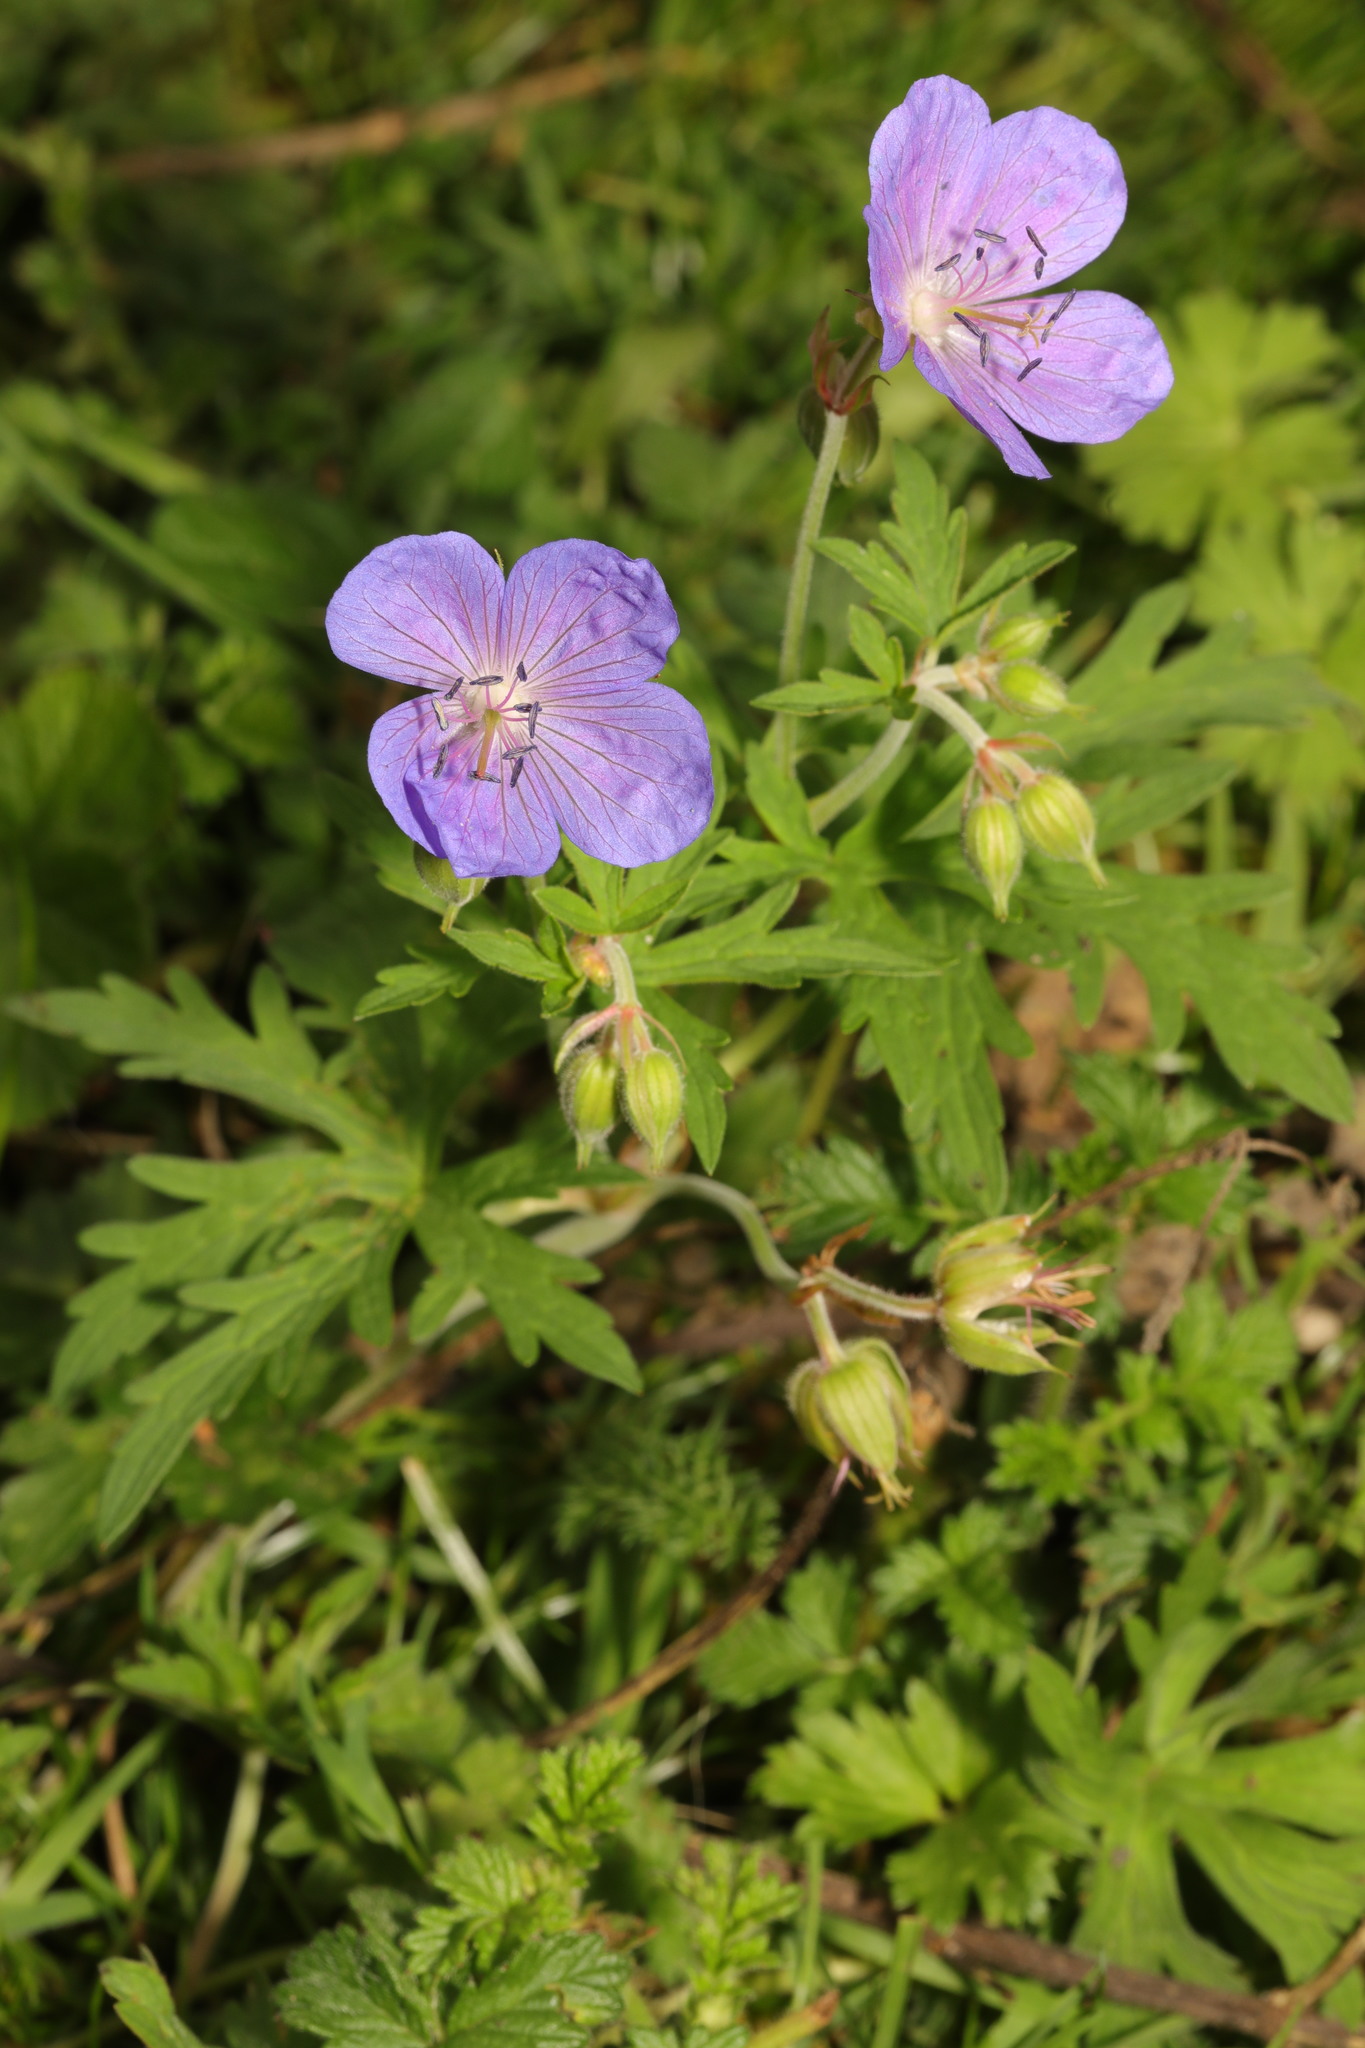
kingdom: Plantae
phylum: Tracheophyta
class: Magnoliopsida
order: Geraniales
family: Geraniaceae
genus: Geranium
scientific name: Geranium pratense
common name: Meadow crane's-bill
